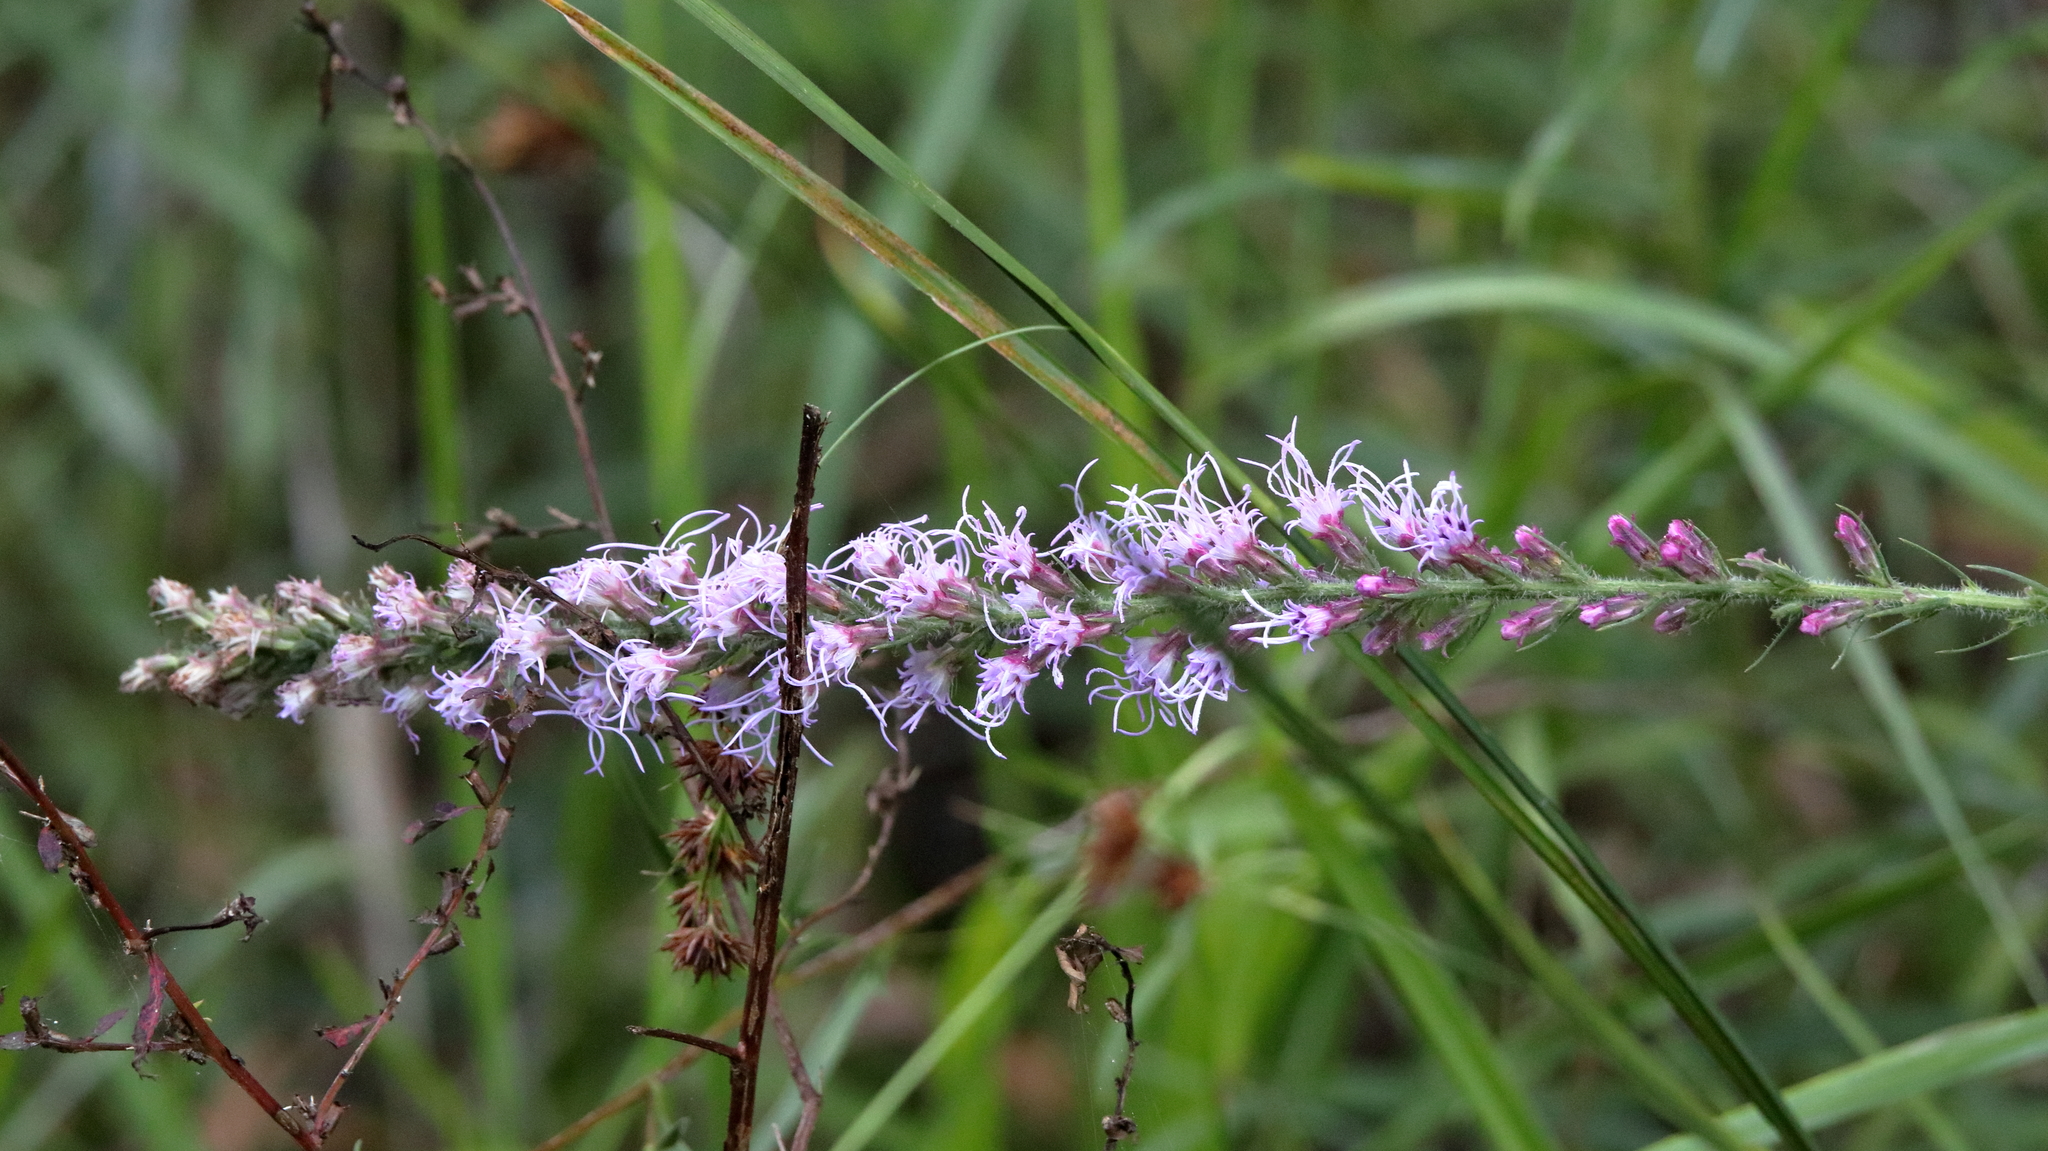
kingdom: Plantae
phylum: Tracheophyta
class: Magnoliopsida
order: Asterales
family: Asteraceae
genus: Liatris
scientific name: Liatris spicata
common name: Florist gayfeather
